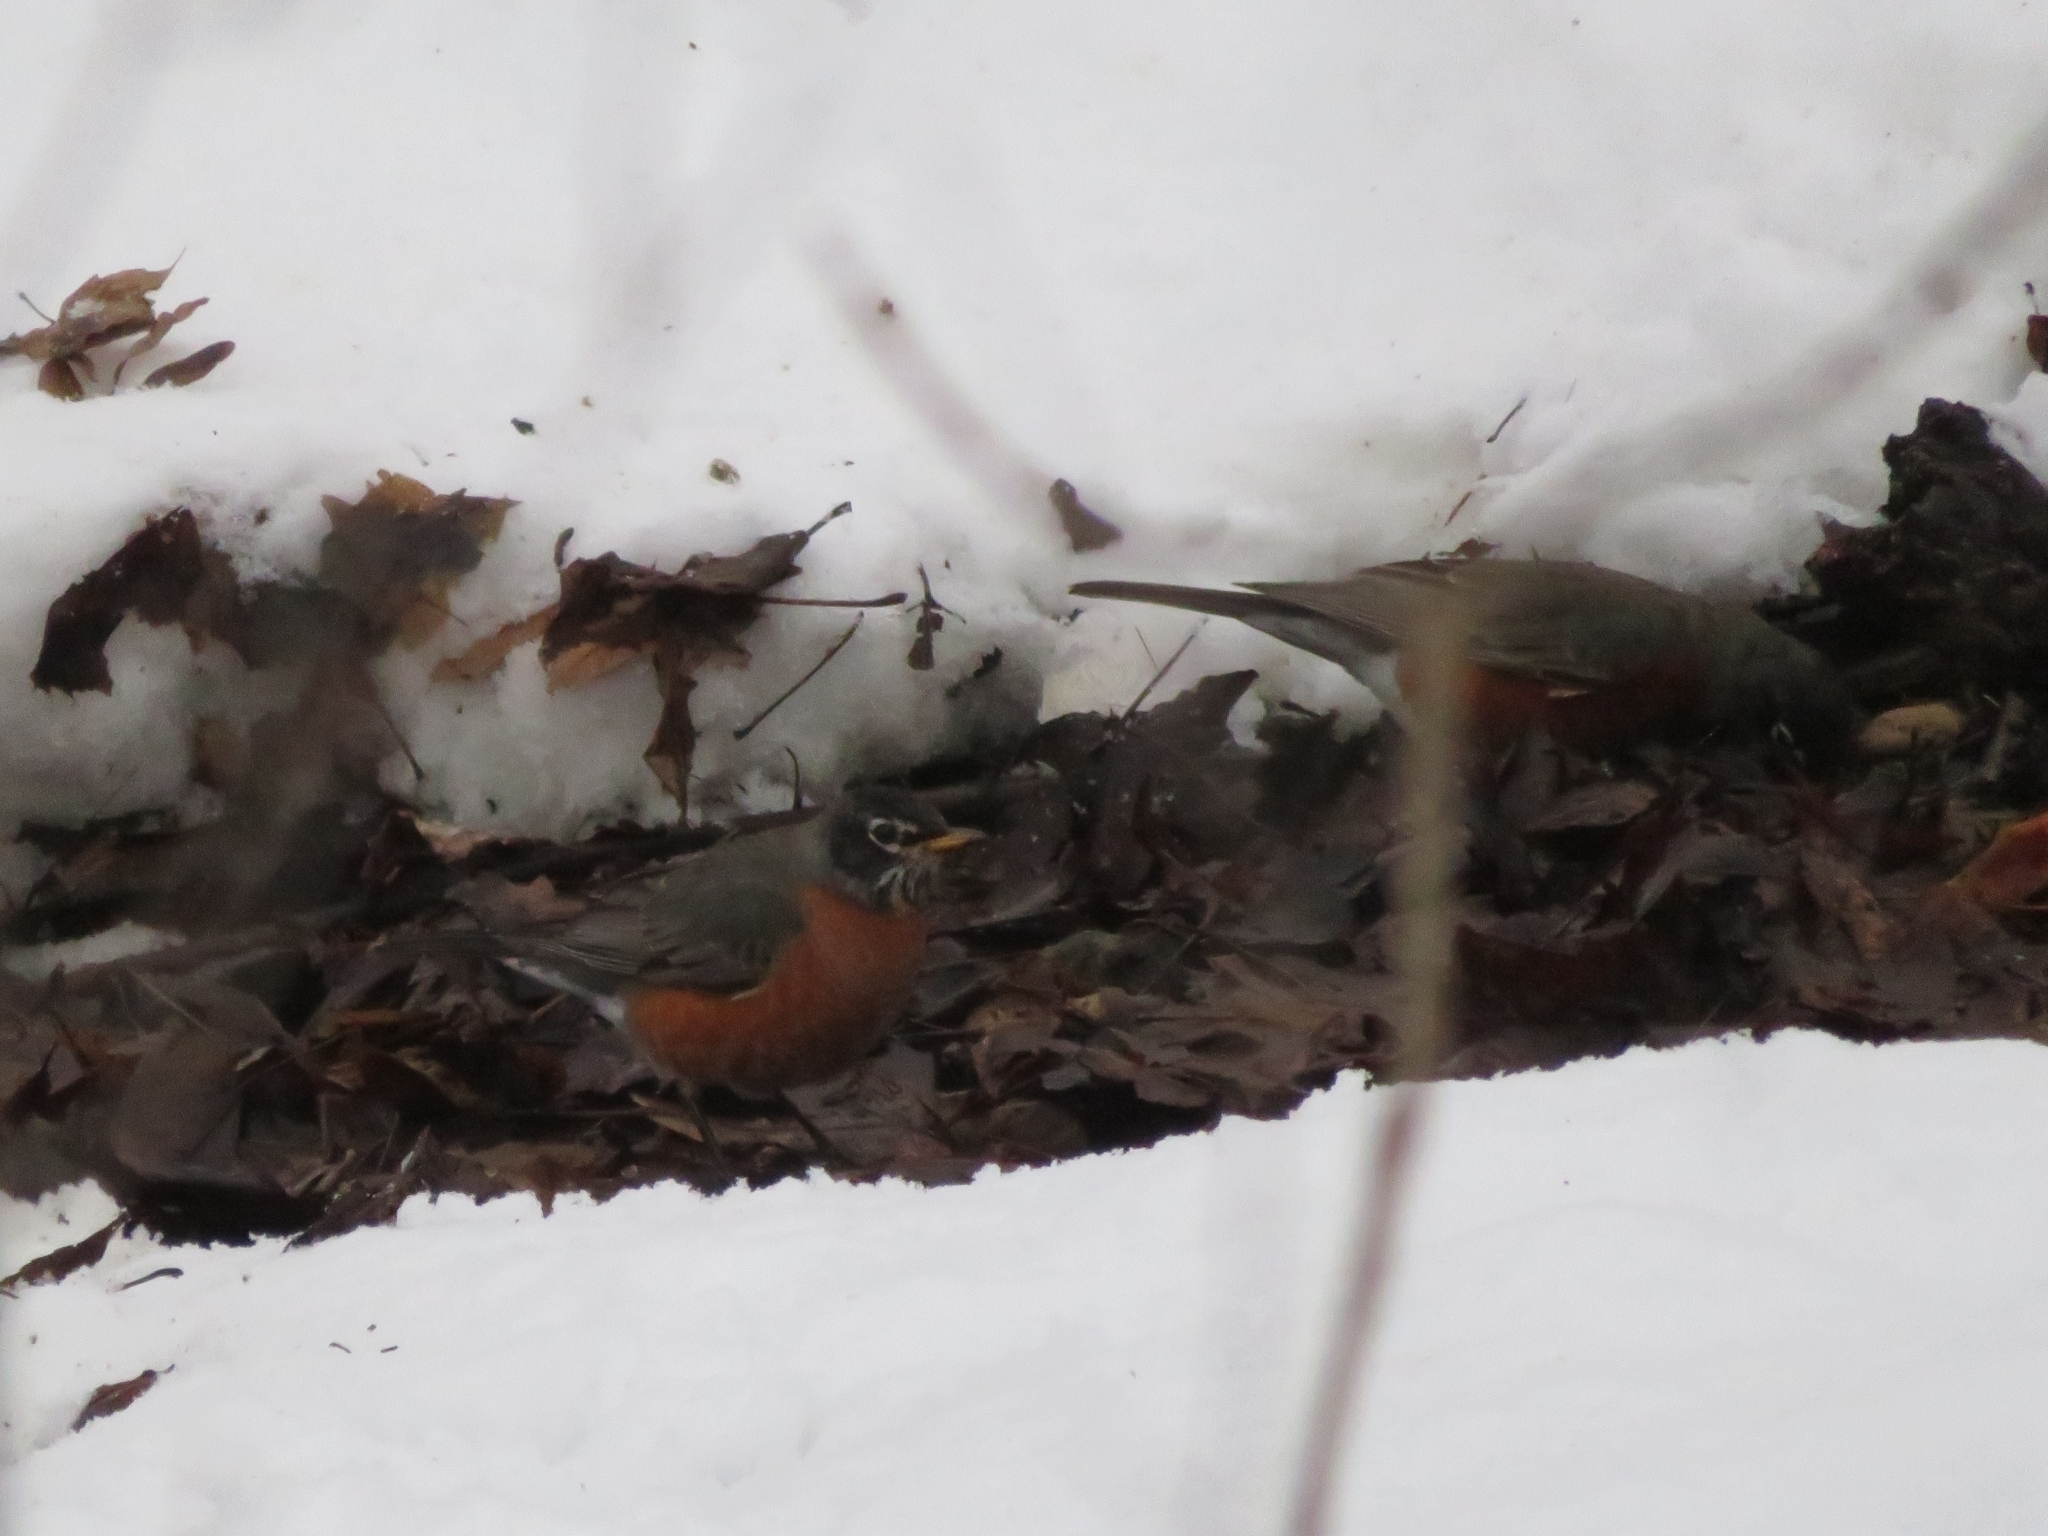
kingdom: Animalia
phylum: Chordata
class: Aves
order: Passeriformes
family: Turdidae
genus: Turdus
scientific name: Turdus migratorius
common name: American robin
